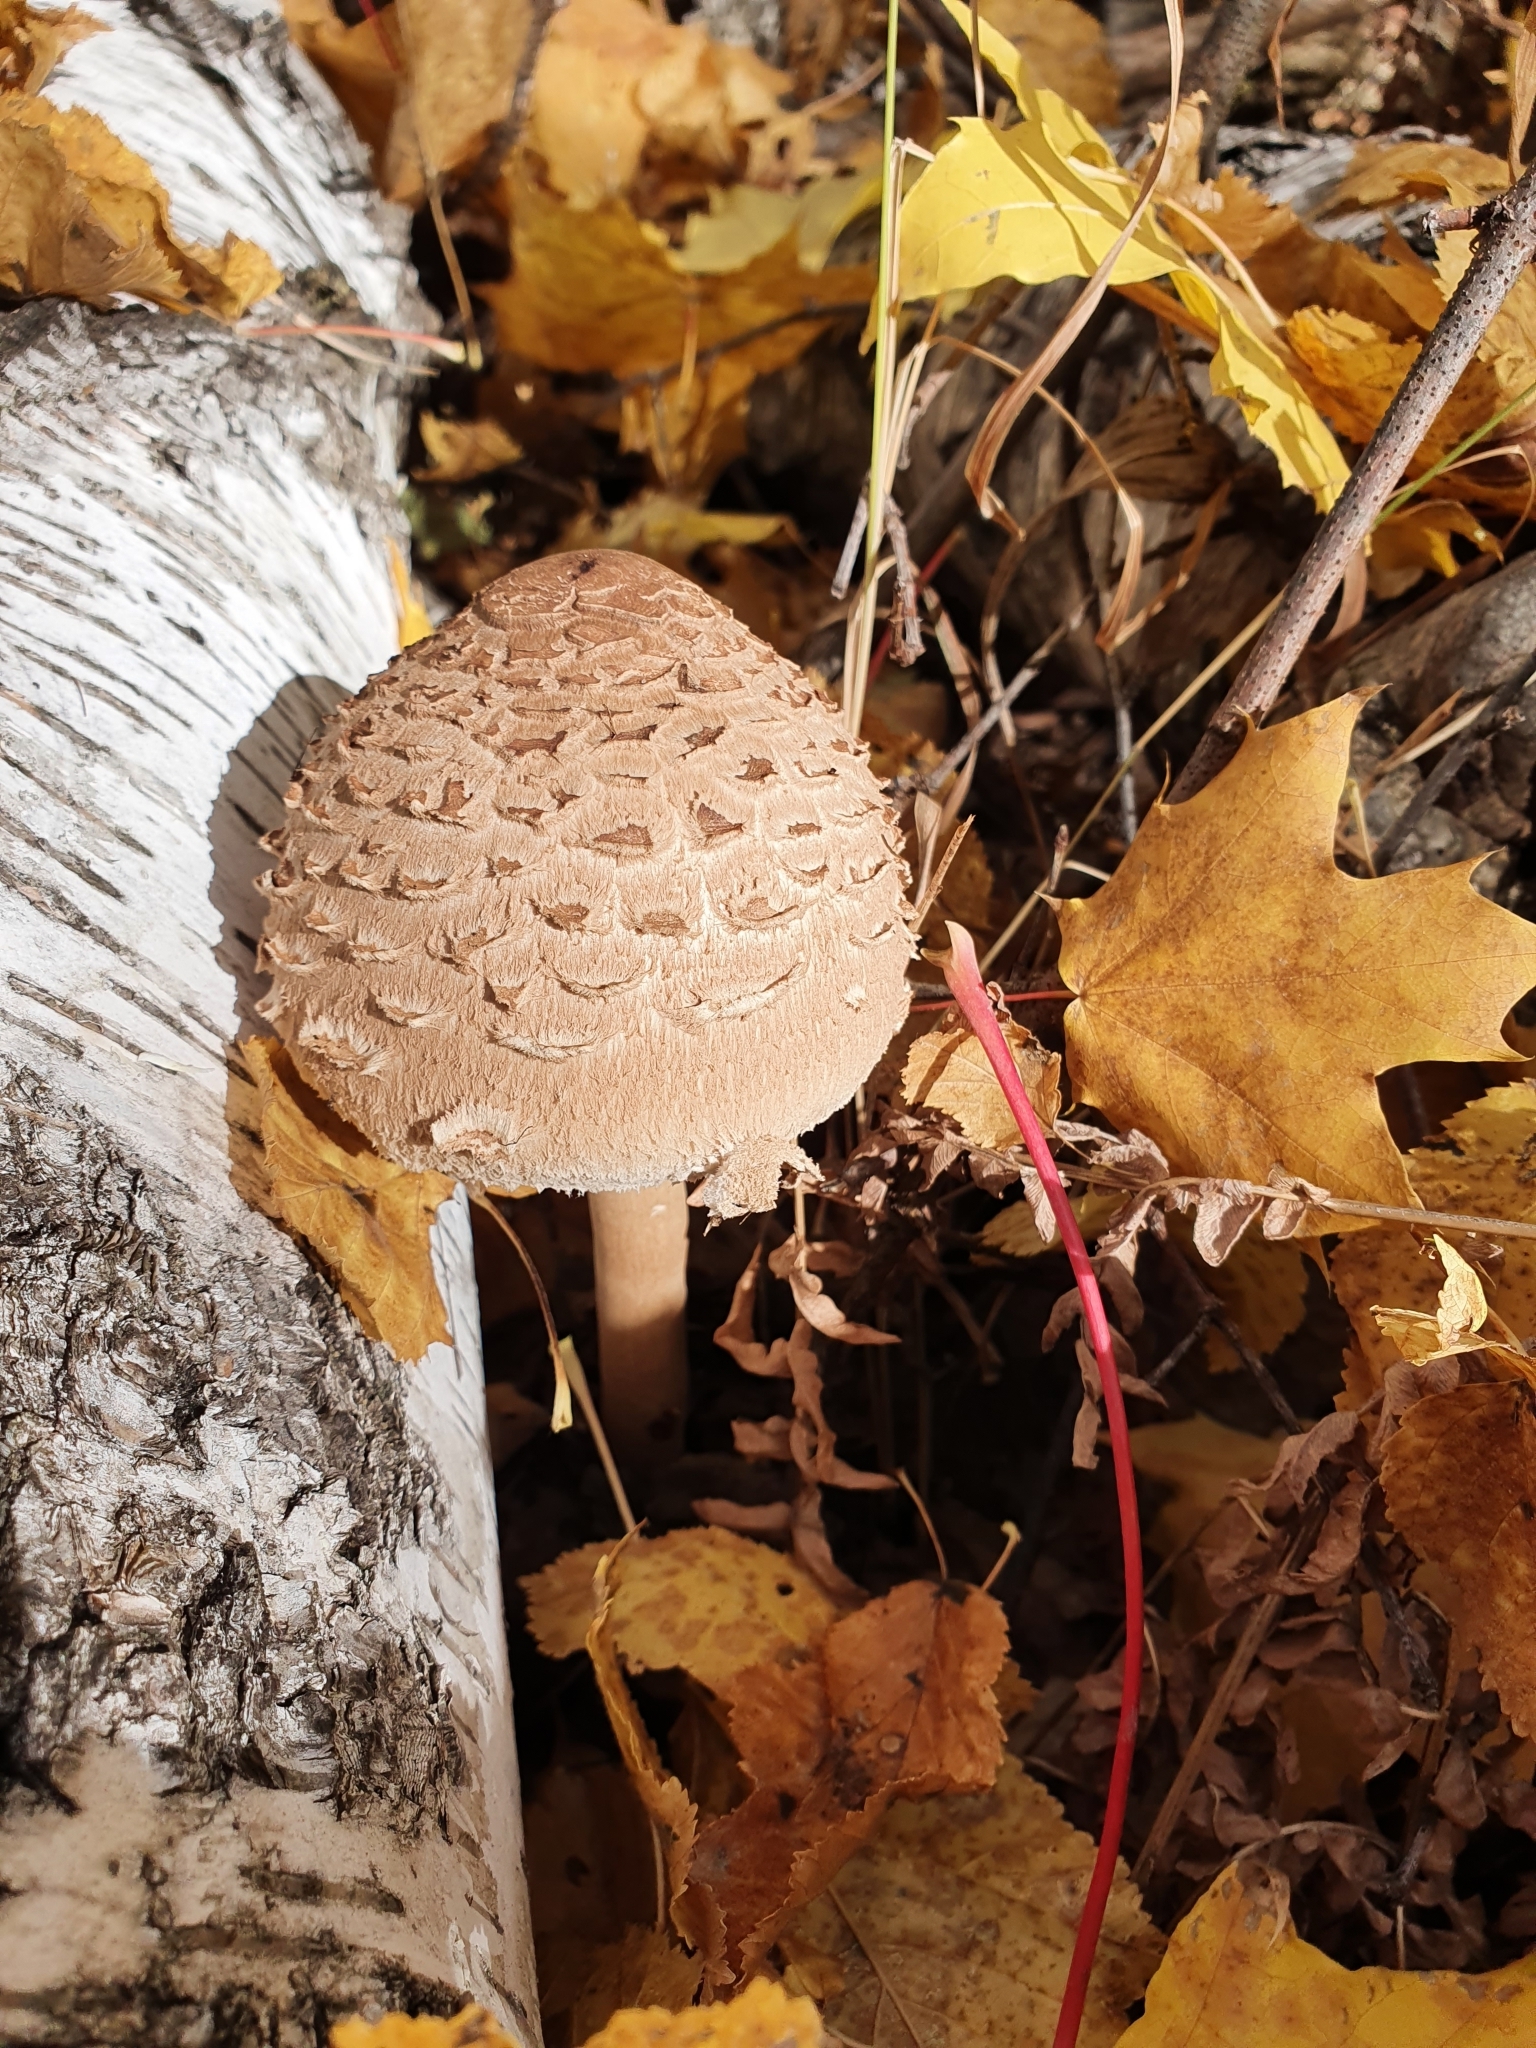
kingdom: Fungi
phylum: Basidiomycota
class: Agaricomycetes
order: Agaricales
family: Agaricaceae
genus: Macrolepiota
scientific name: Macrolepiota procera
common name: Parasol
